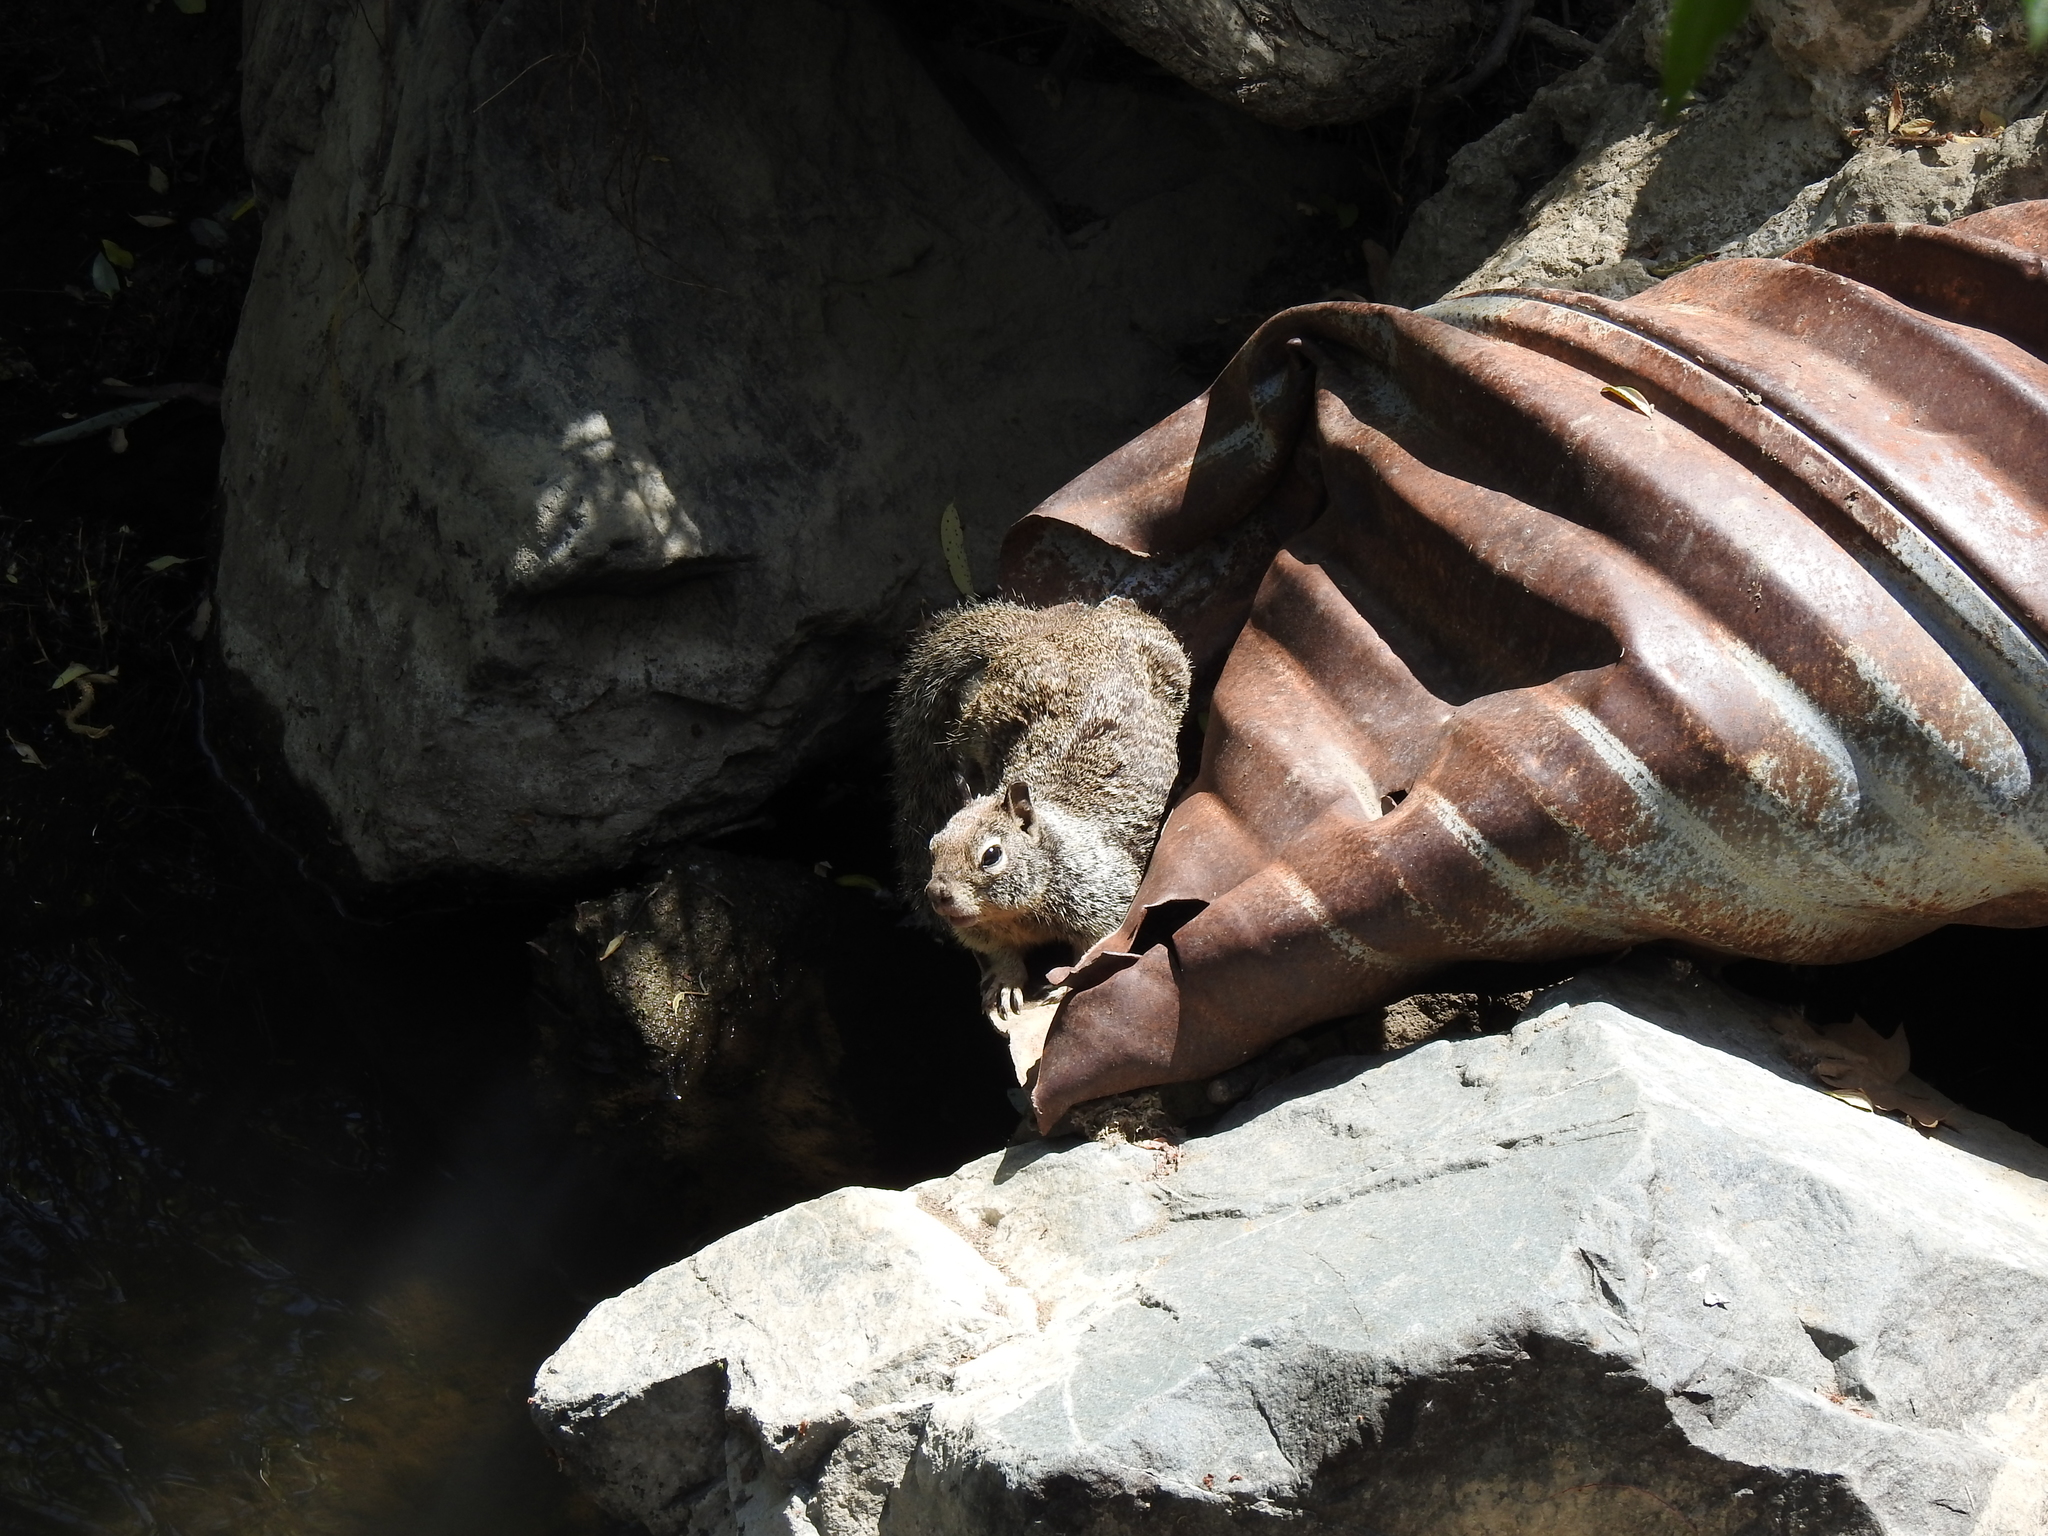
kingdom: Animalia
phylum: Chordata
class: Mammalia
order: Rodentia
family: Sciuridae
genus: Otospermophilus
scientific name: Otospermophilus beecheyi
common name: California ground squirrel
